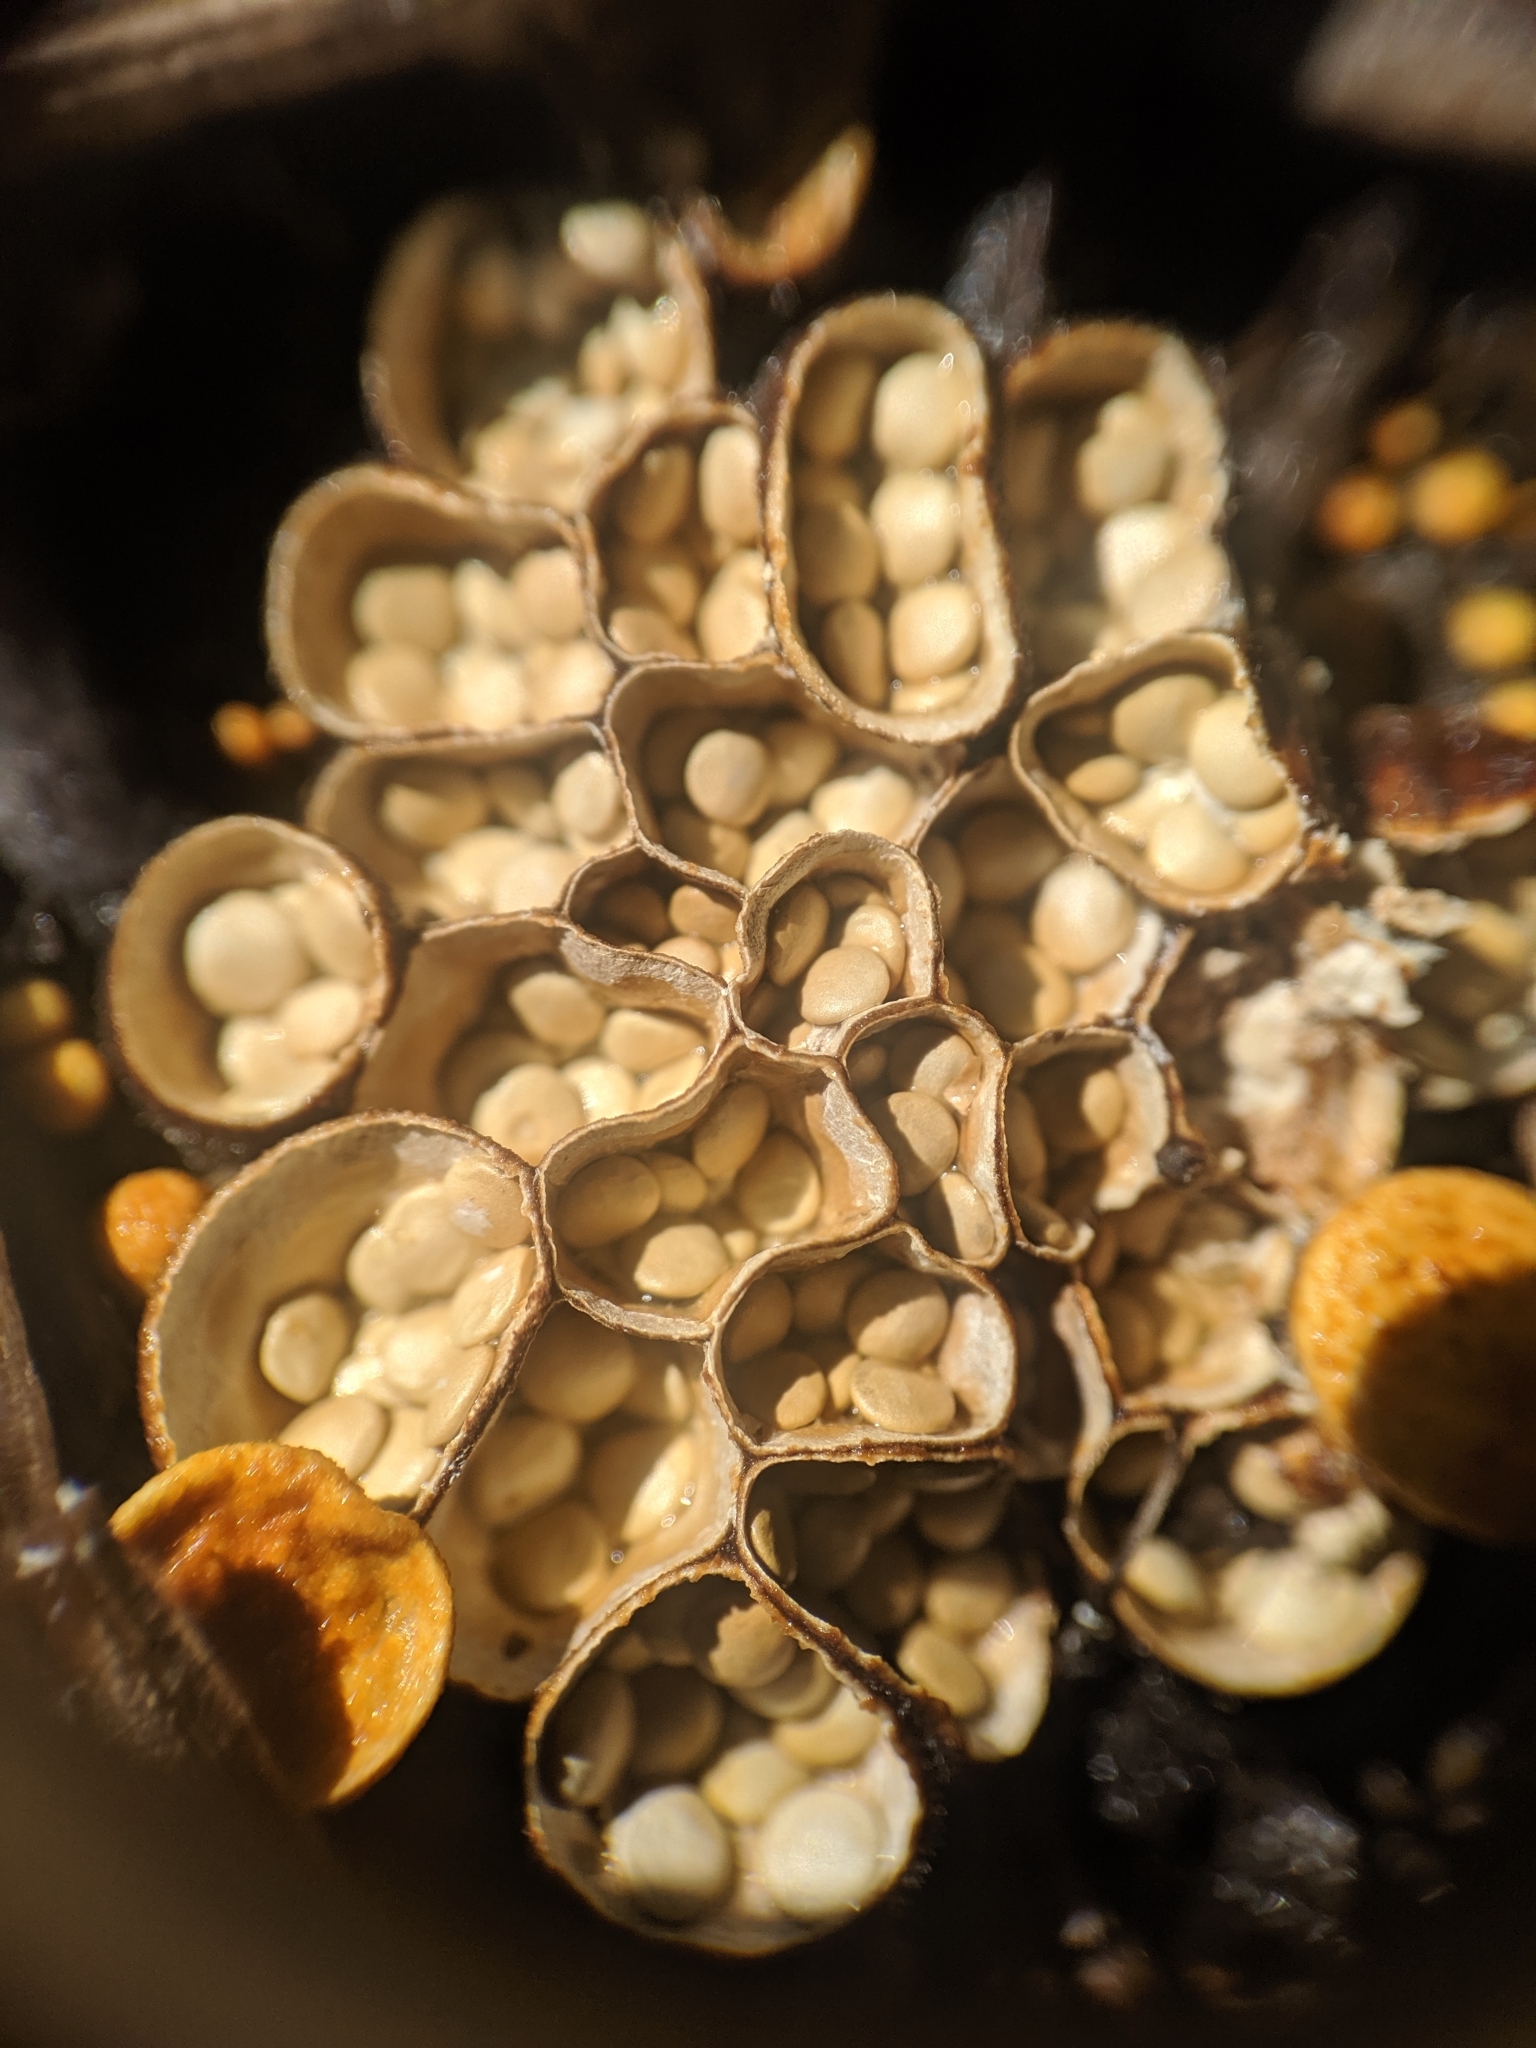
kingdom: Fungi
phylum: Basidiomycota
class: Agaricomycetes
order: Agaricales
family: Nidulariaceae
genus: Crucibulum
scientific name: Crucibulum laeve
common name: Common bird's nest
